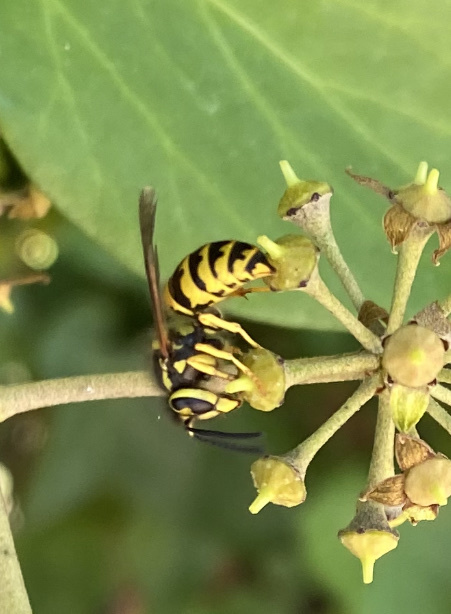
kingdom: Animalia
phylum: Arthropoda
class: Insecta
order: Hymenoptera
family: Vespidae
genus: Vespula
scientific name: Vespula pensylvanica
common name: Western yellowjacket
